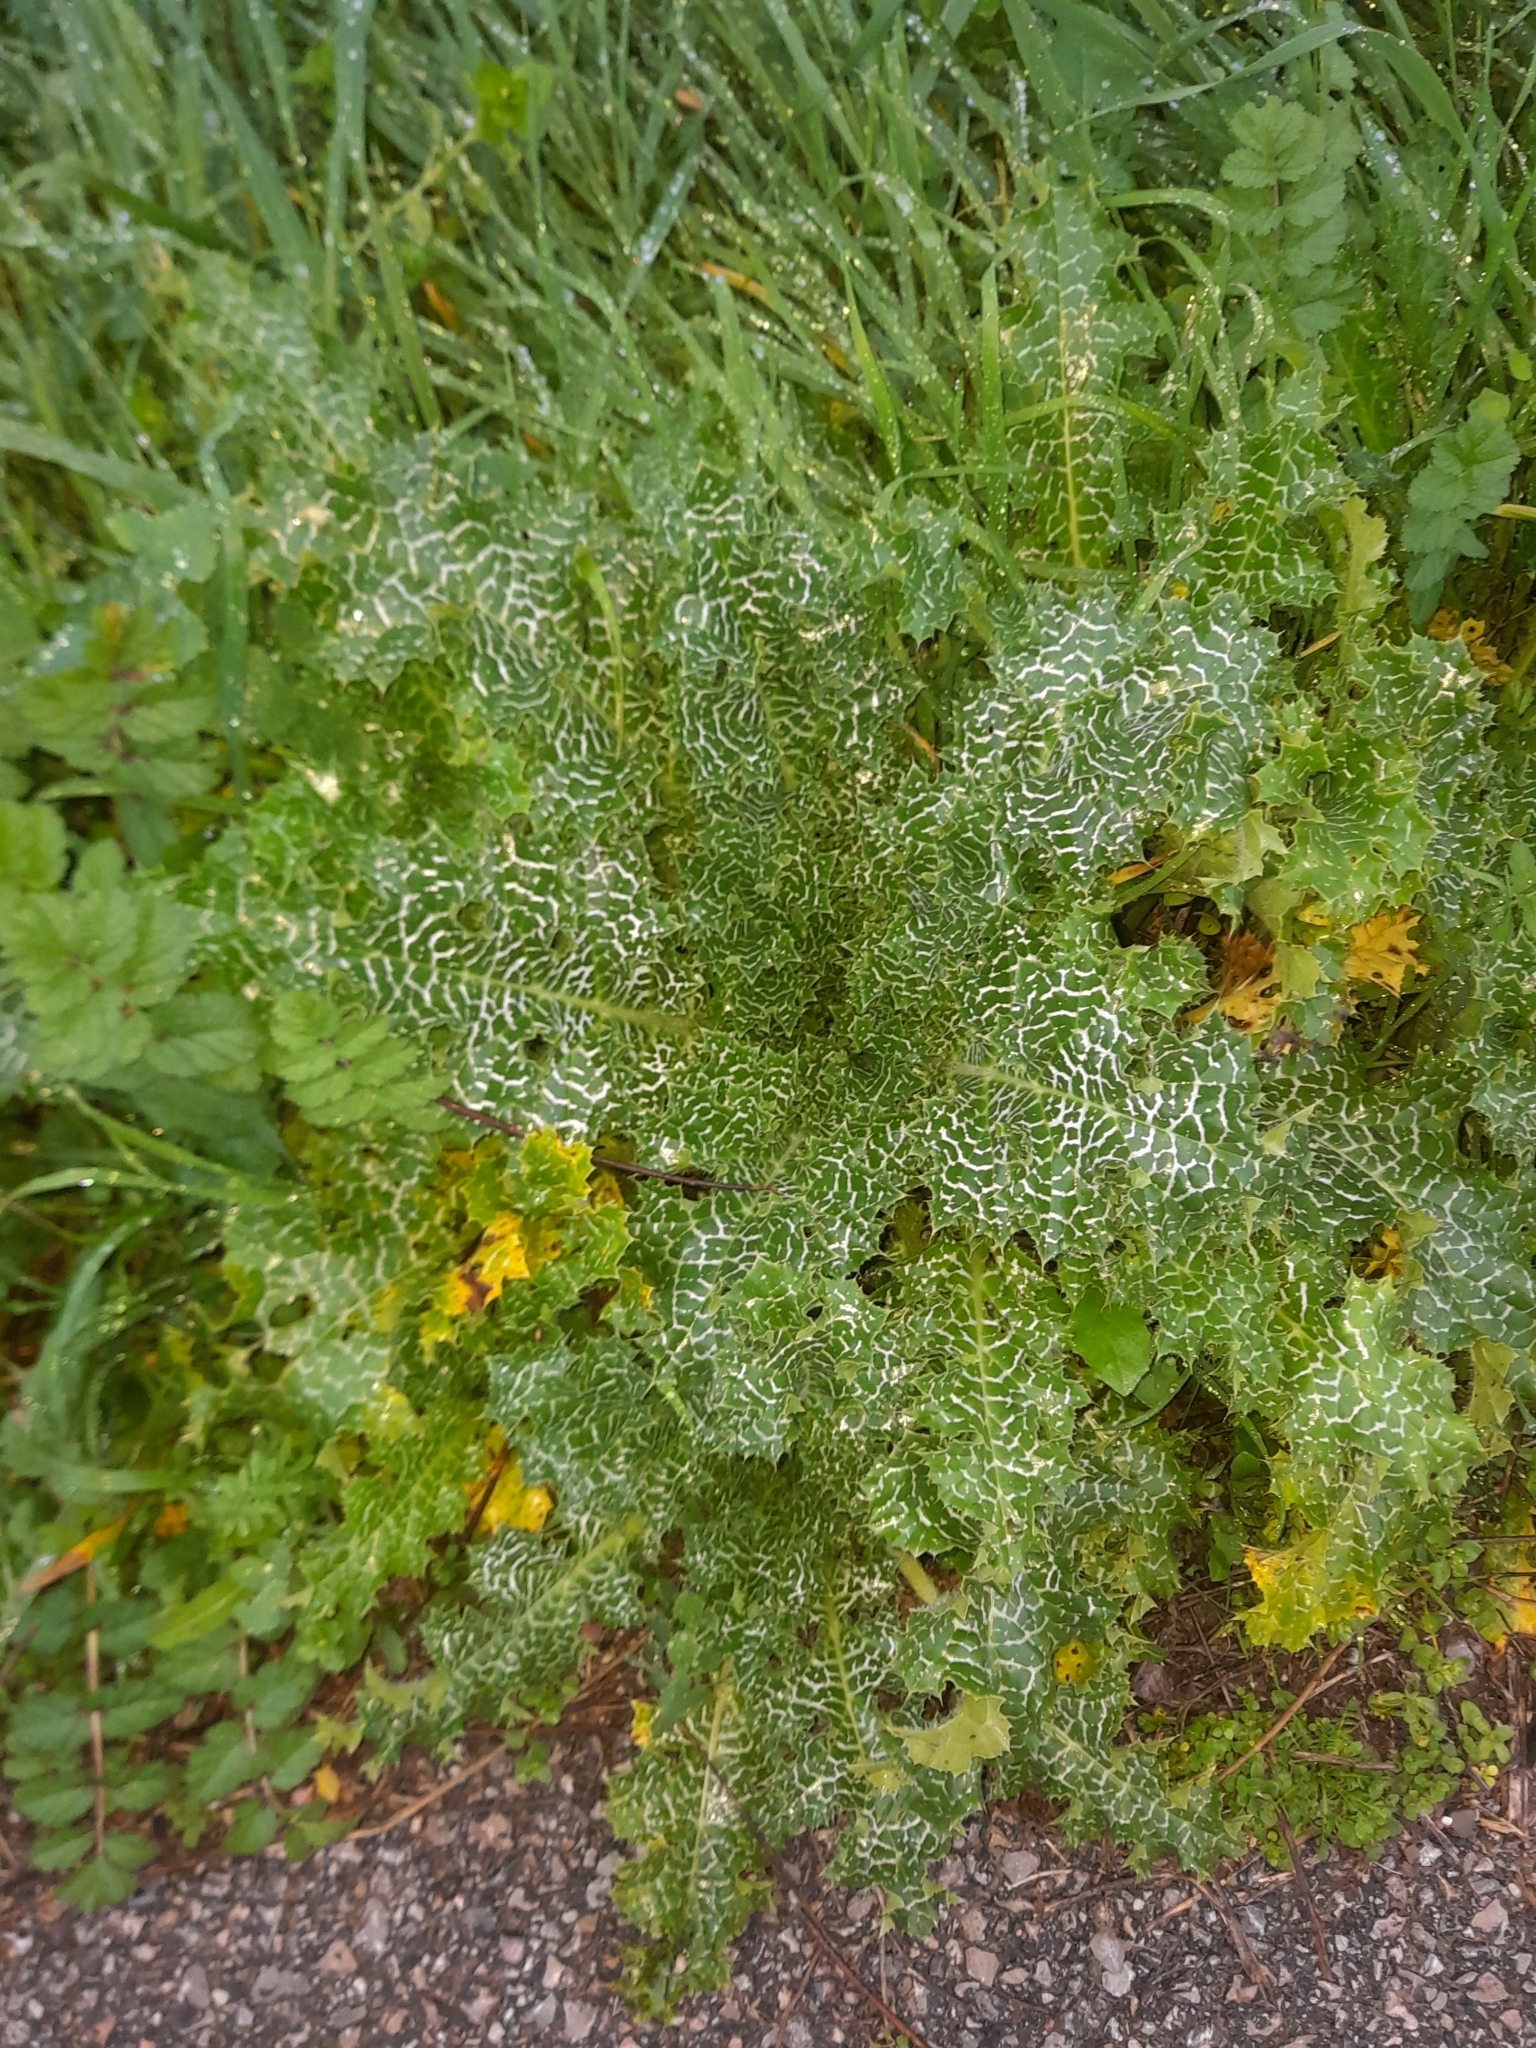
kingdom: Plantae
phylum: Tracheophyta
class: Magnoliopsida
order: Asterales
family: Asteraceae
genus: Silybum
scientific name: Silybum marianum
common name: Milk thistle
